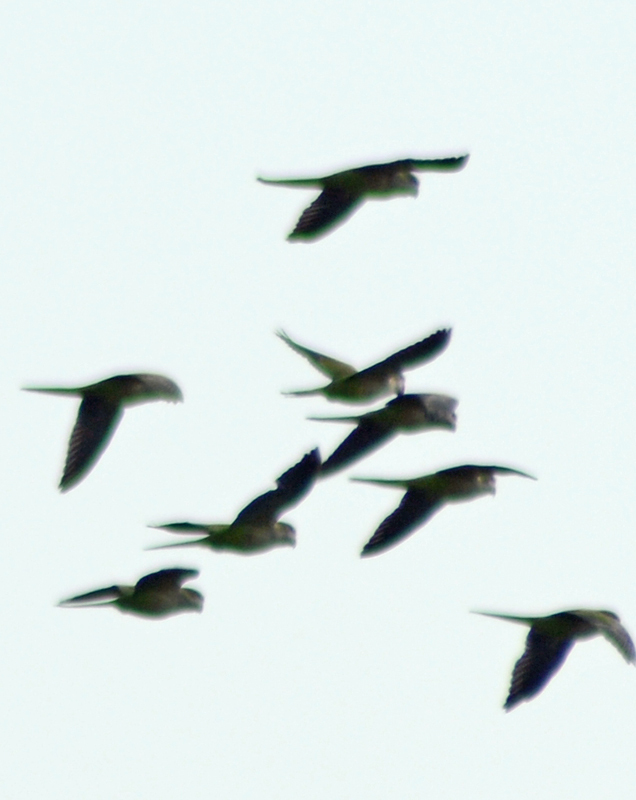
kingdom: Animalia
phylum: Chordata
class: Aves
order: Psittaciformes
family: Psittacidae
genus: Myiopsitta
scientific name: Myiopsitta monachus
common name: Monk parakeet
